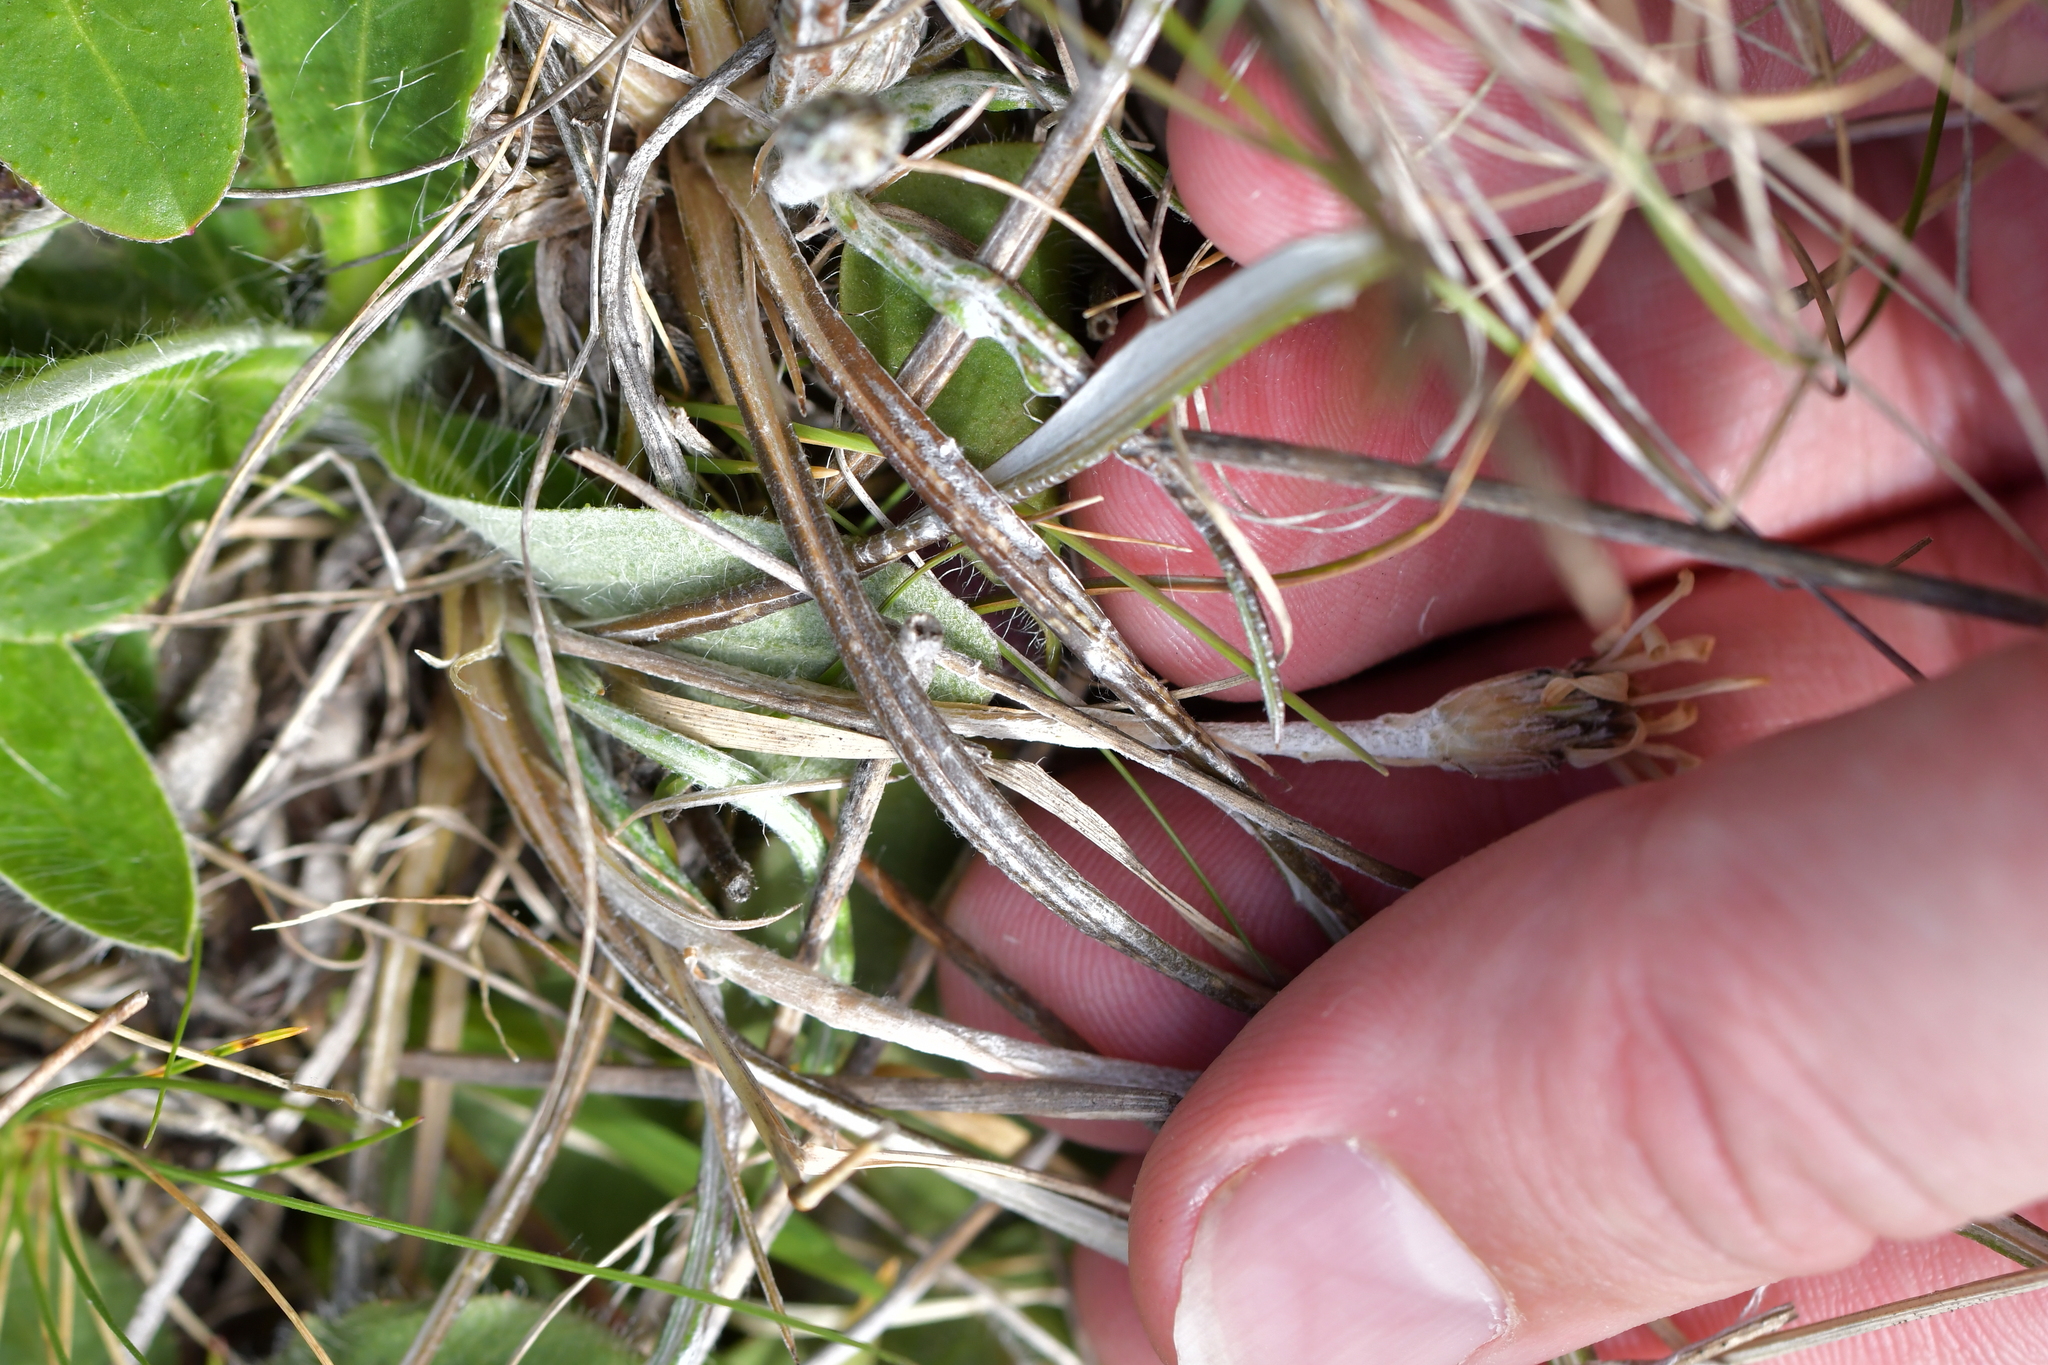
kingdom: Plantae
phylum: Tracheophyta
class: Magnoliopsida
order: Asterales
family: Asteraceae
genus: Celmisia
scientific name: Celmisia gracilenta
